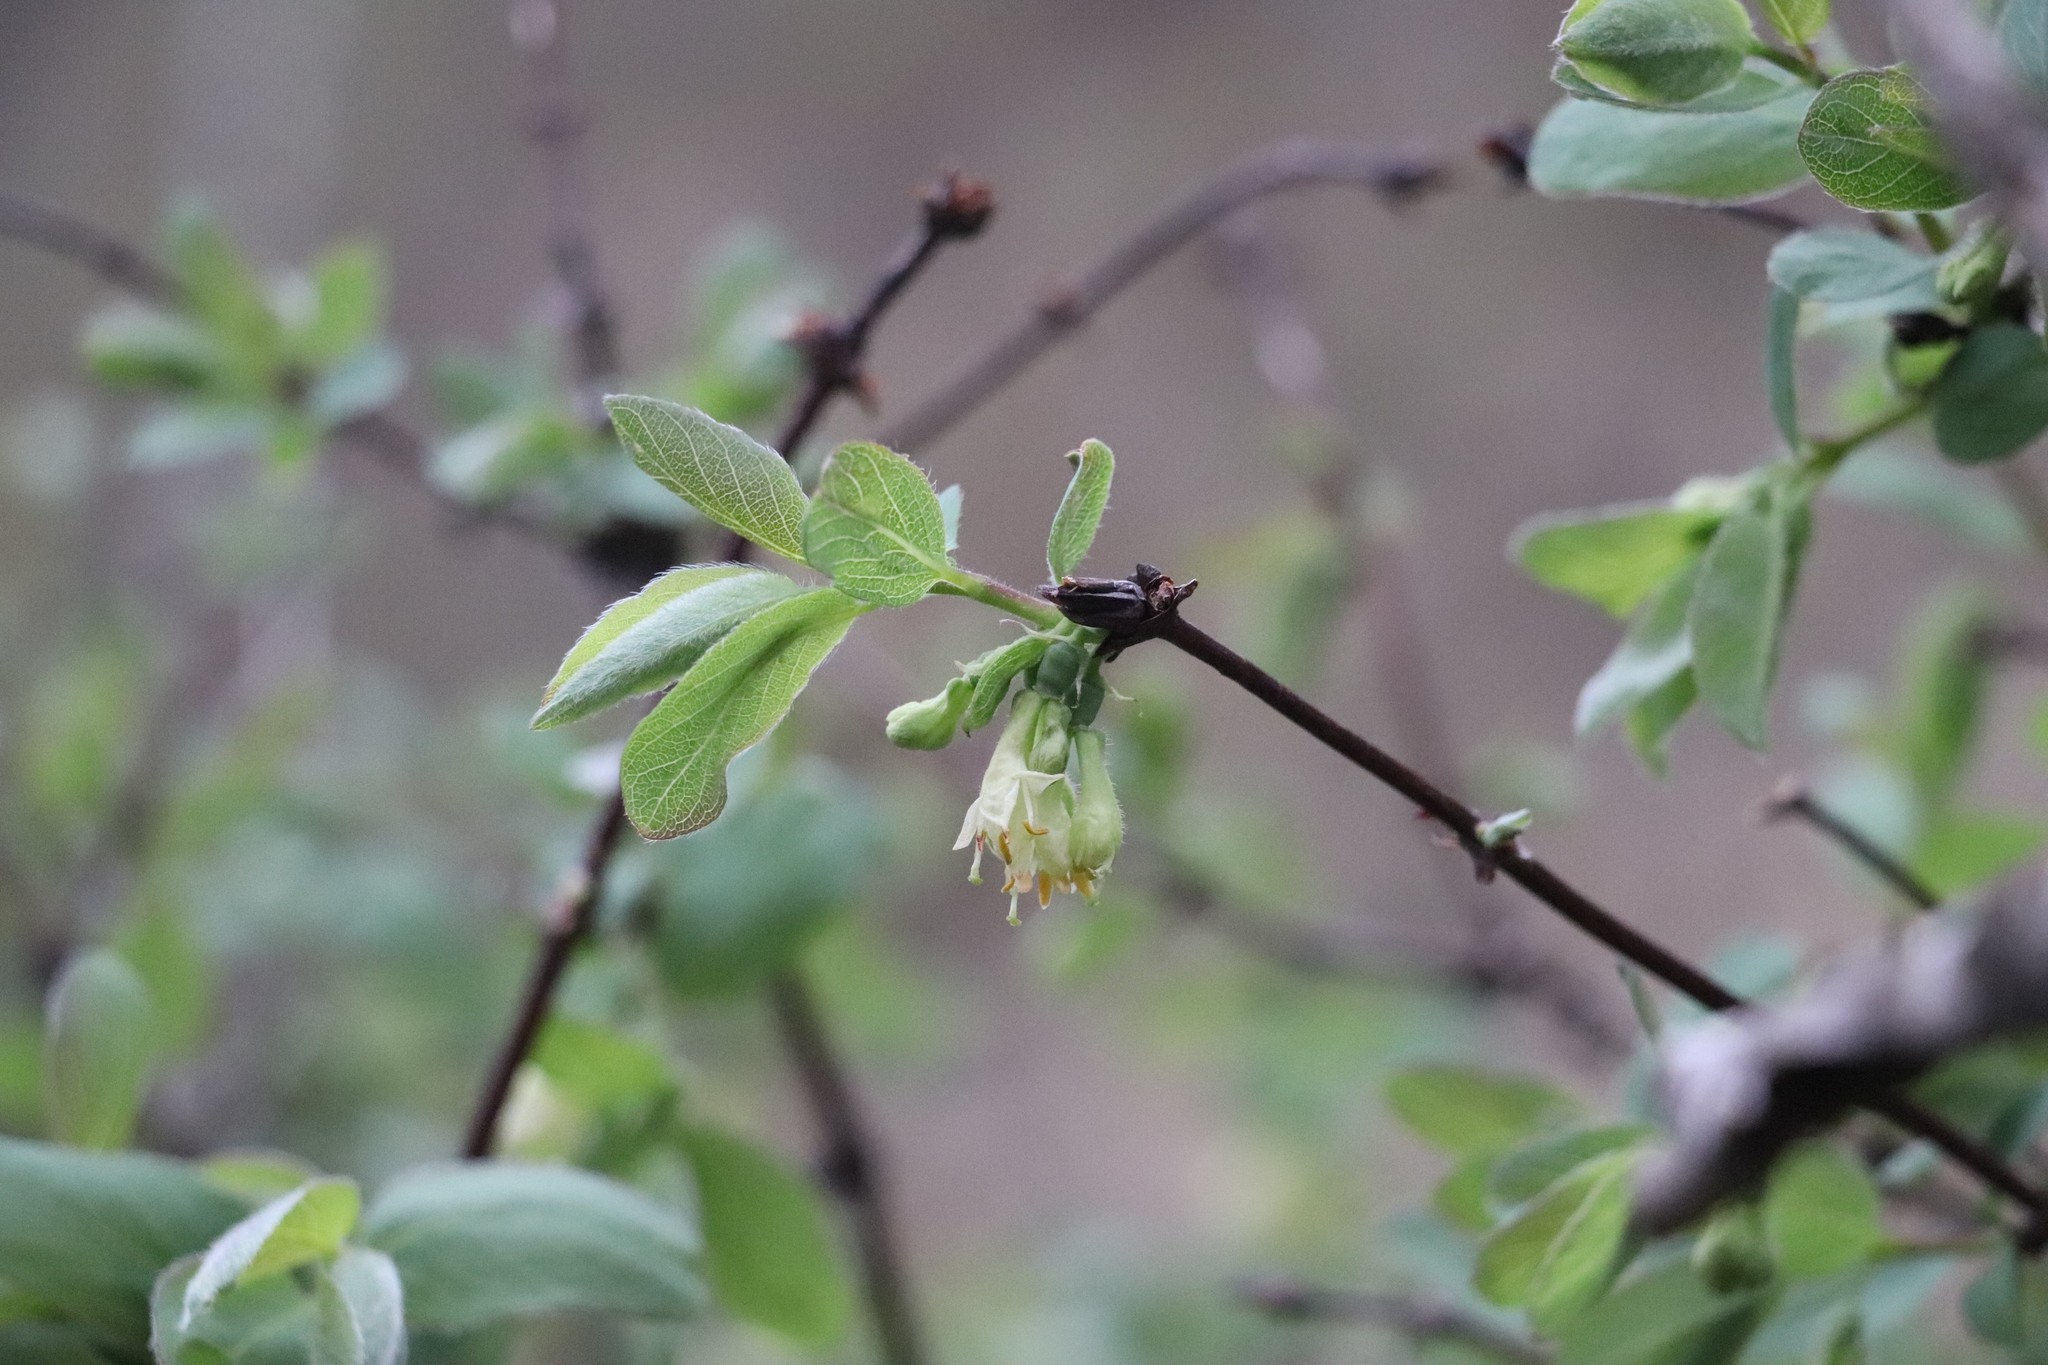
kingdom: Plantae
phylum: Tracheophyta
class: Magnoliopsida
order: Dipsacales
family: Caprifoliaceae
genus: Lonicera
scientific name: Lonicera caerulea
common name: Blue honeysuckle
